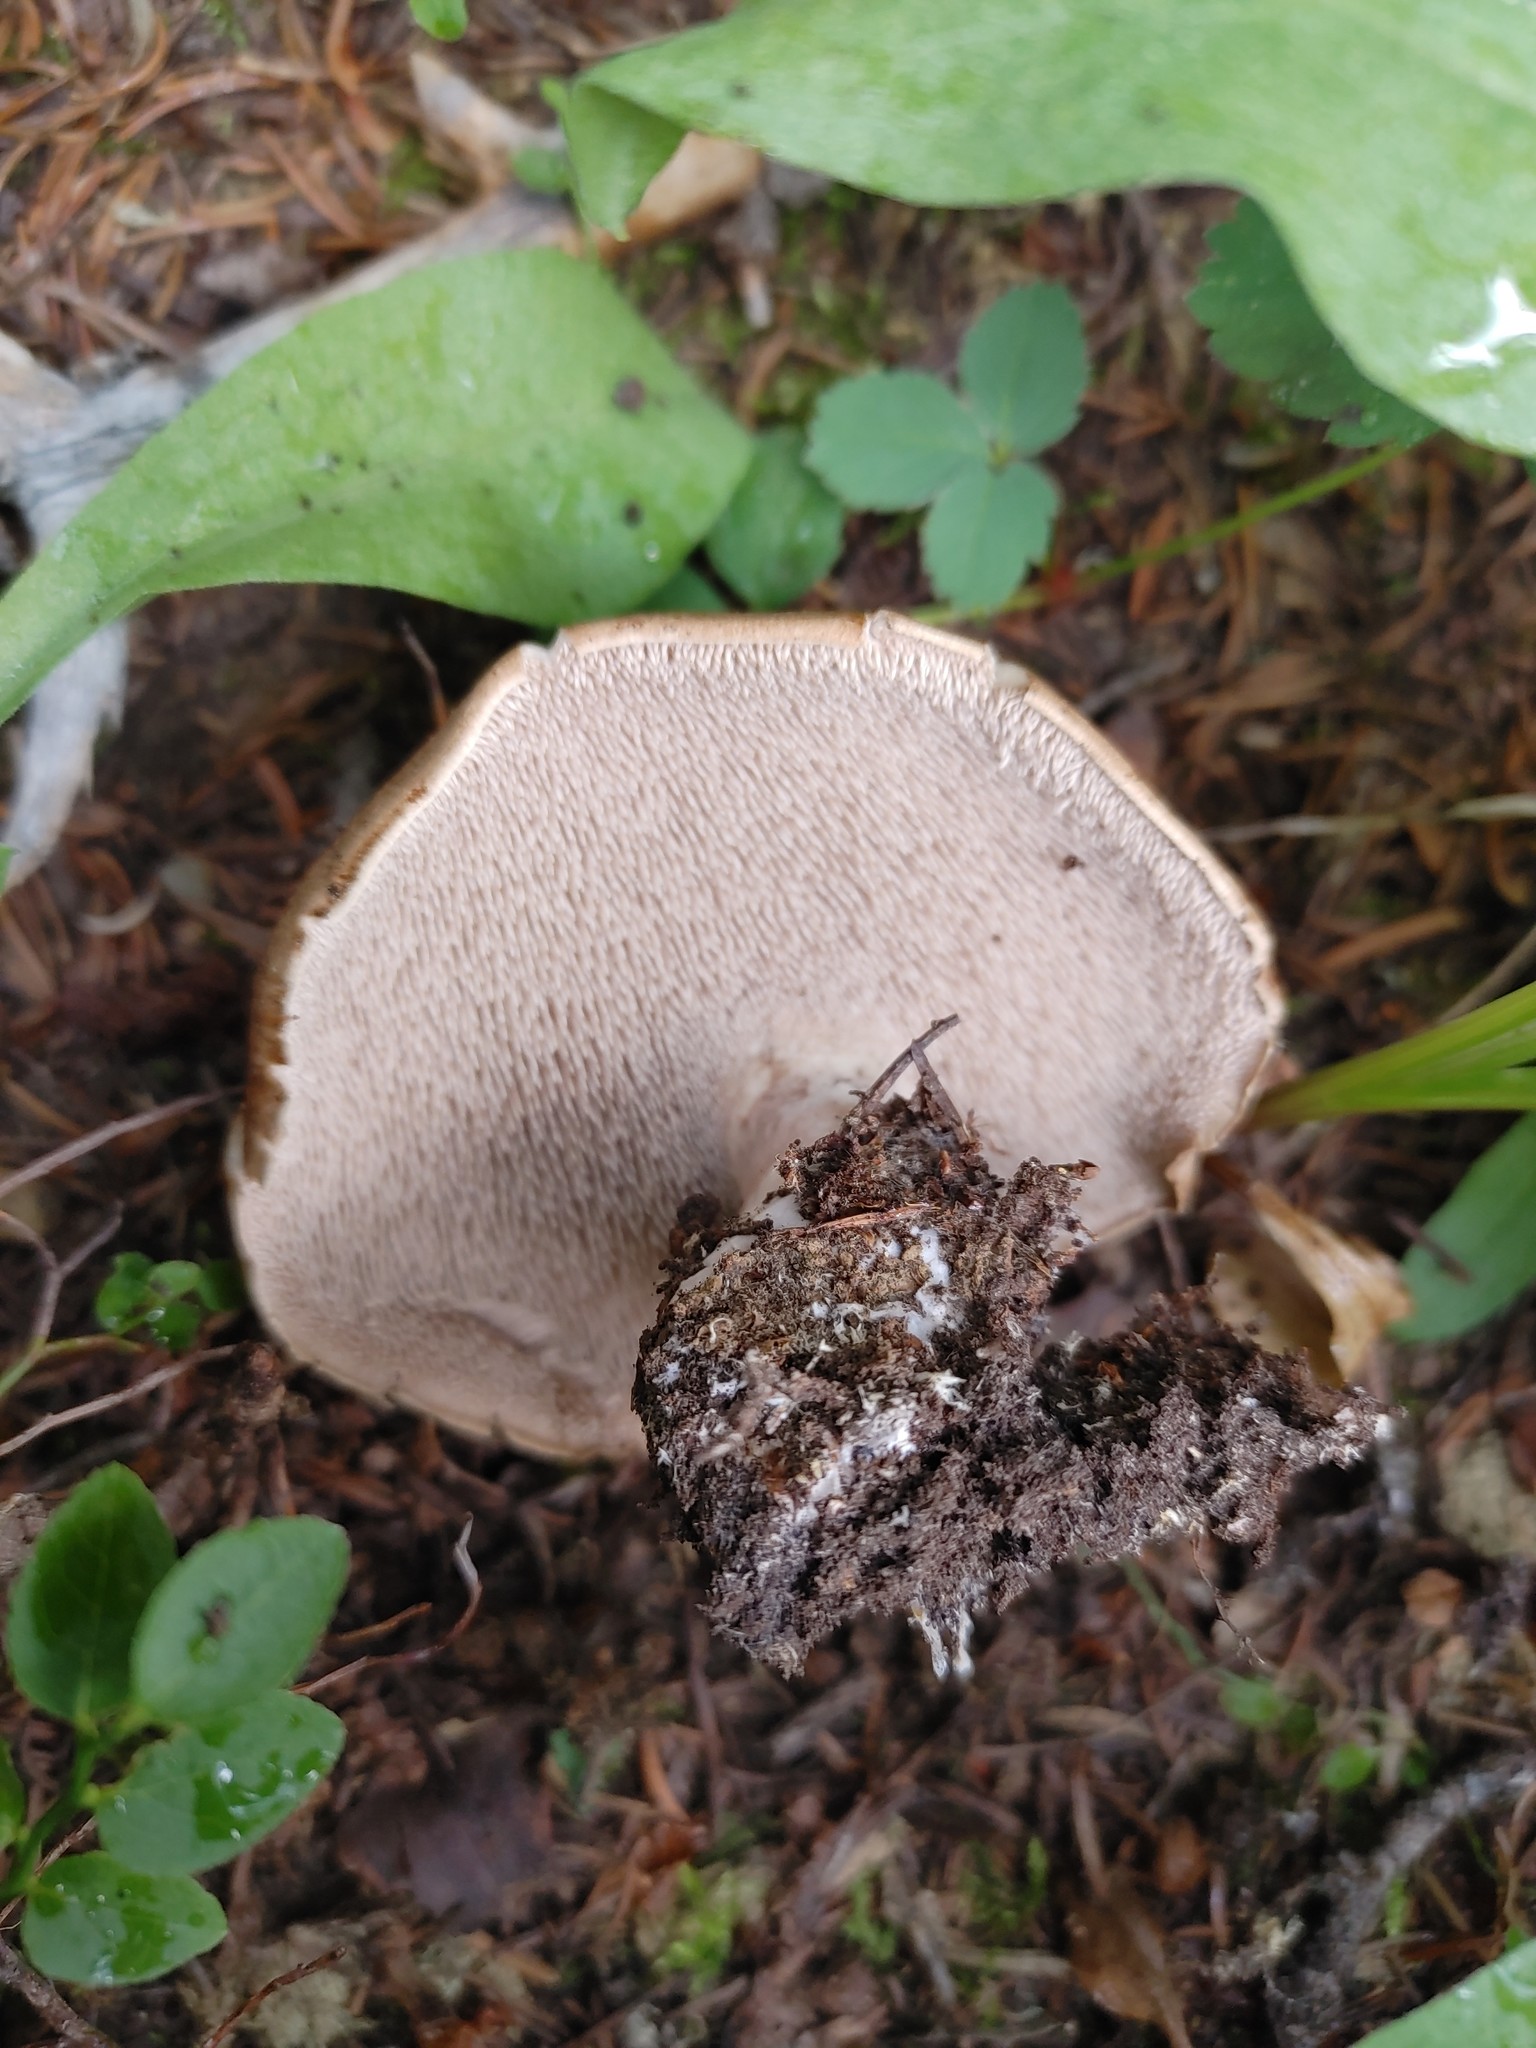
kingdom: Fungi
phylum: Basidiomycota
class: Agaricomycetes
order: Thelephorales
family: Bankeraceae
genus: Sarcodon
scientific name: Sarcodon imbricatus
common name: Shingled hedgehog
